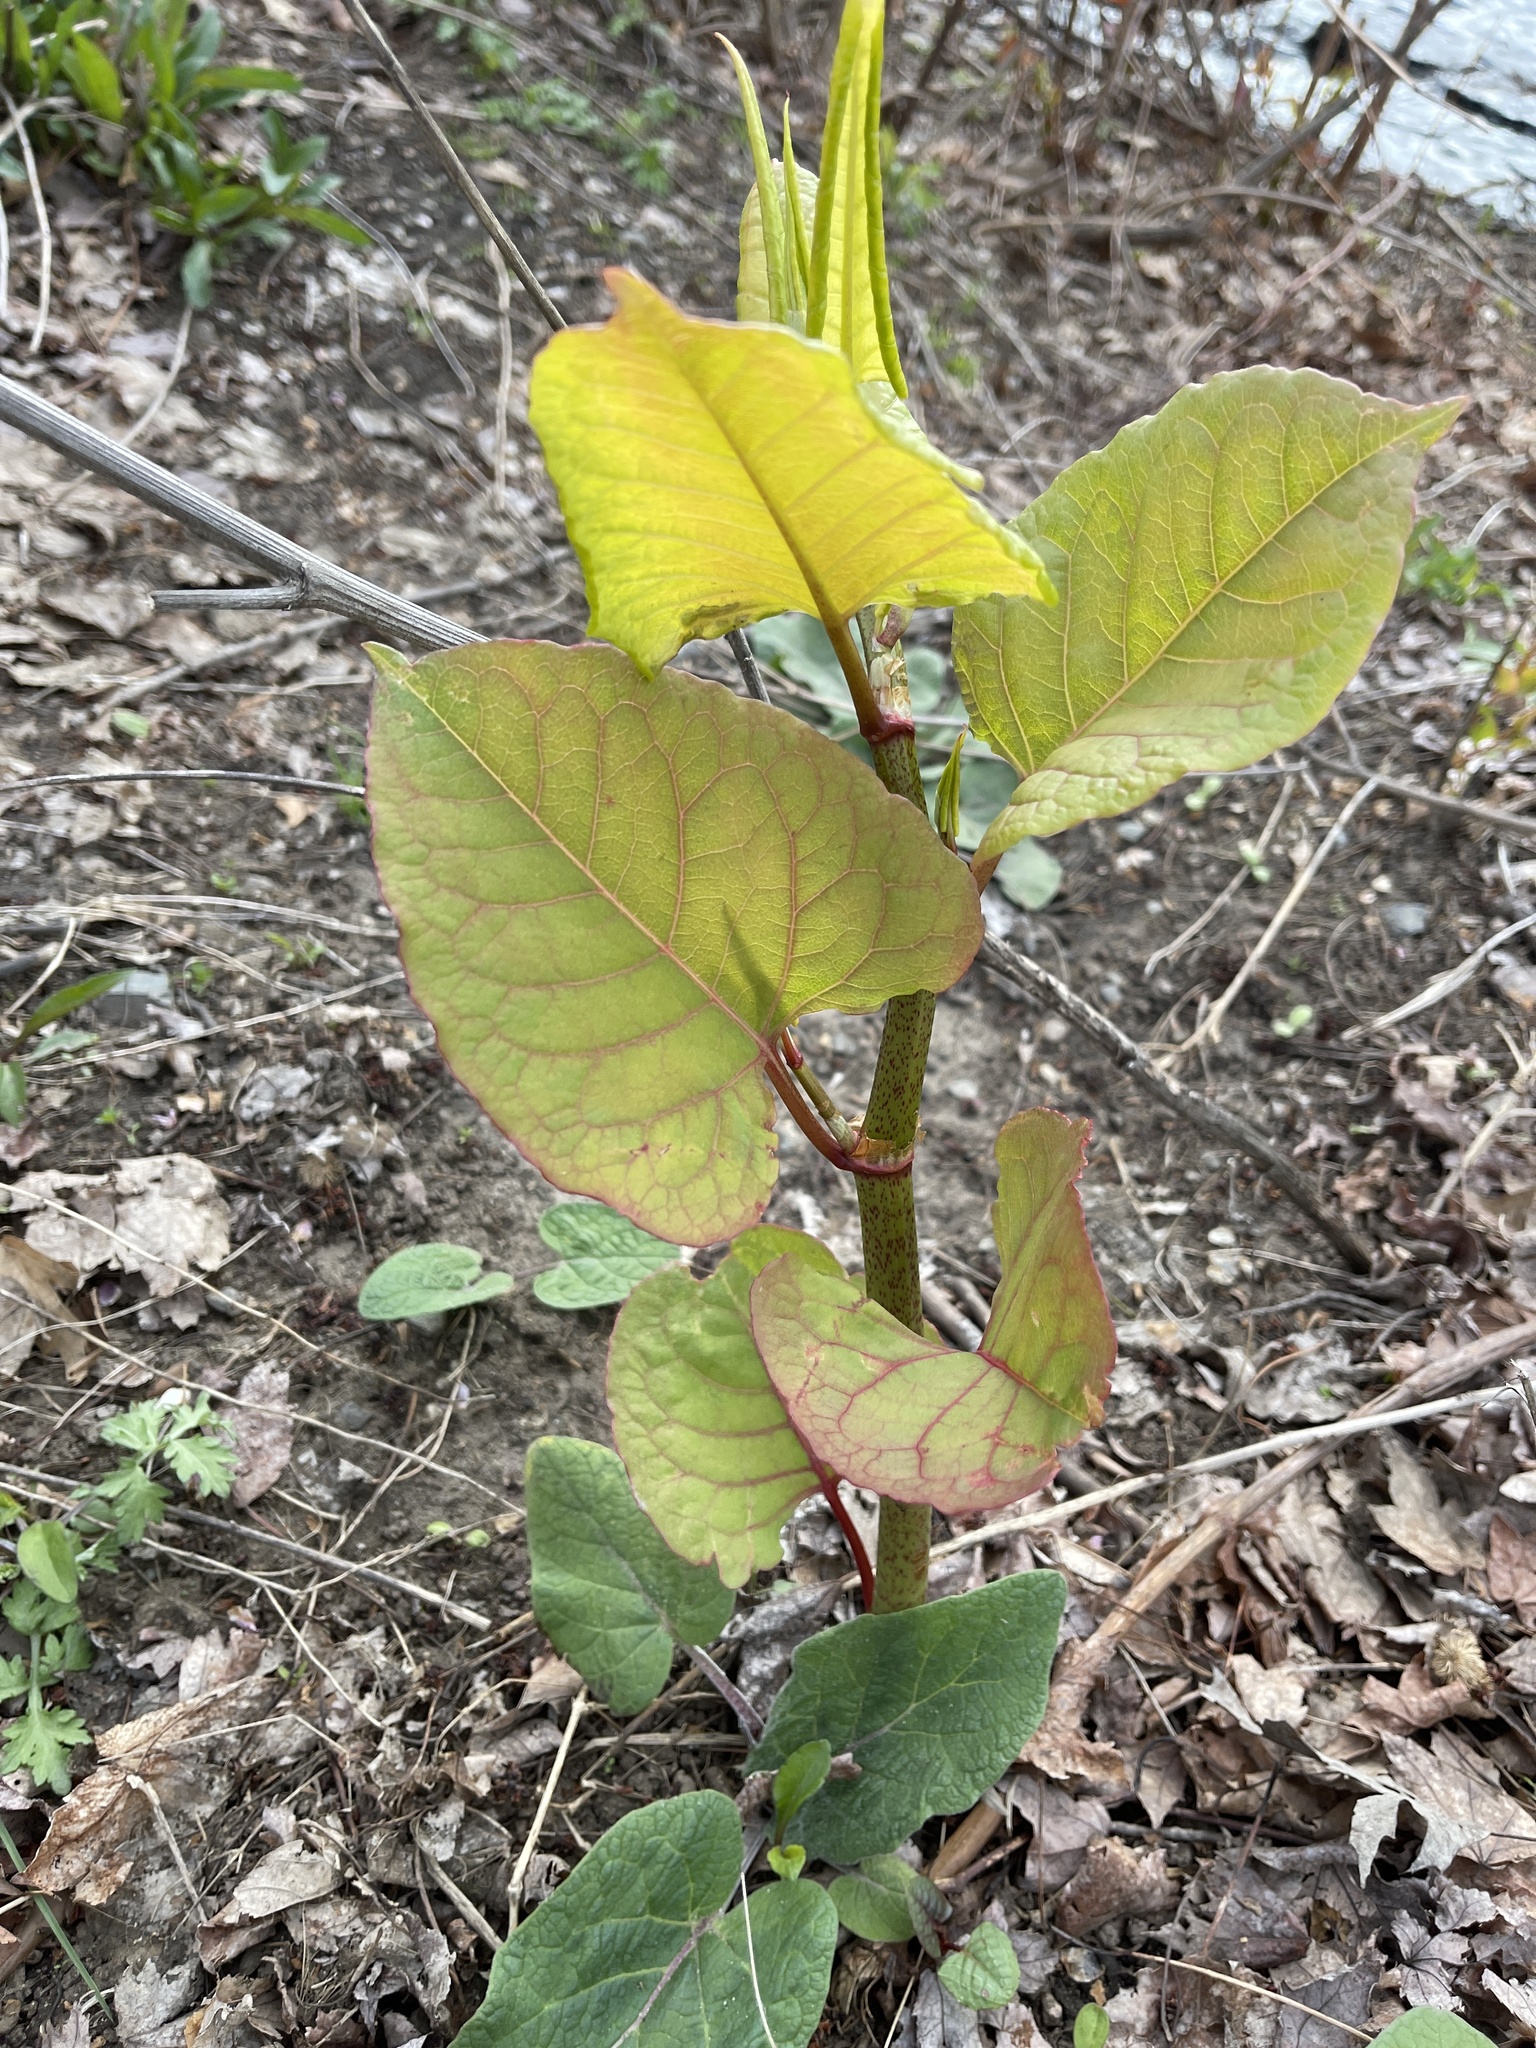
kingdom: Plantae
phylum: Tracheophyta
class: Magnoliopsida
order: Caryophyllales
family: Polygonaceae
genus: Reynoutria
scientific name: Reynoutria japonica
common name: Japanese knotweed
